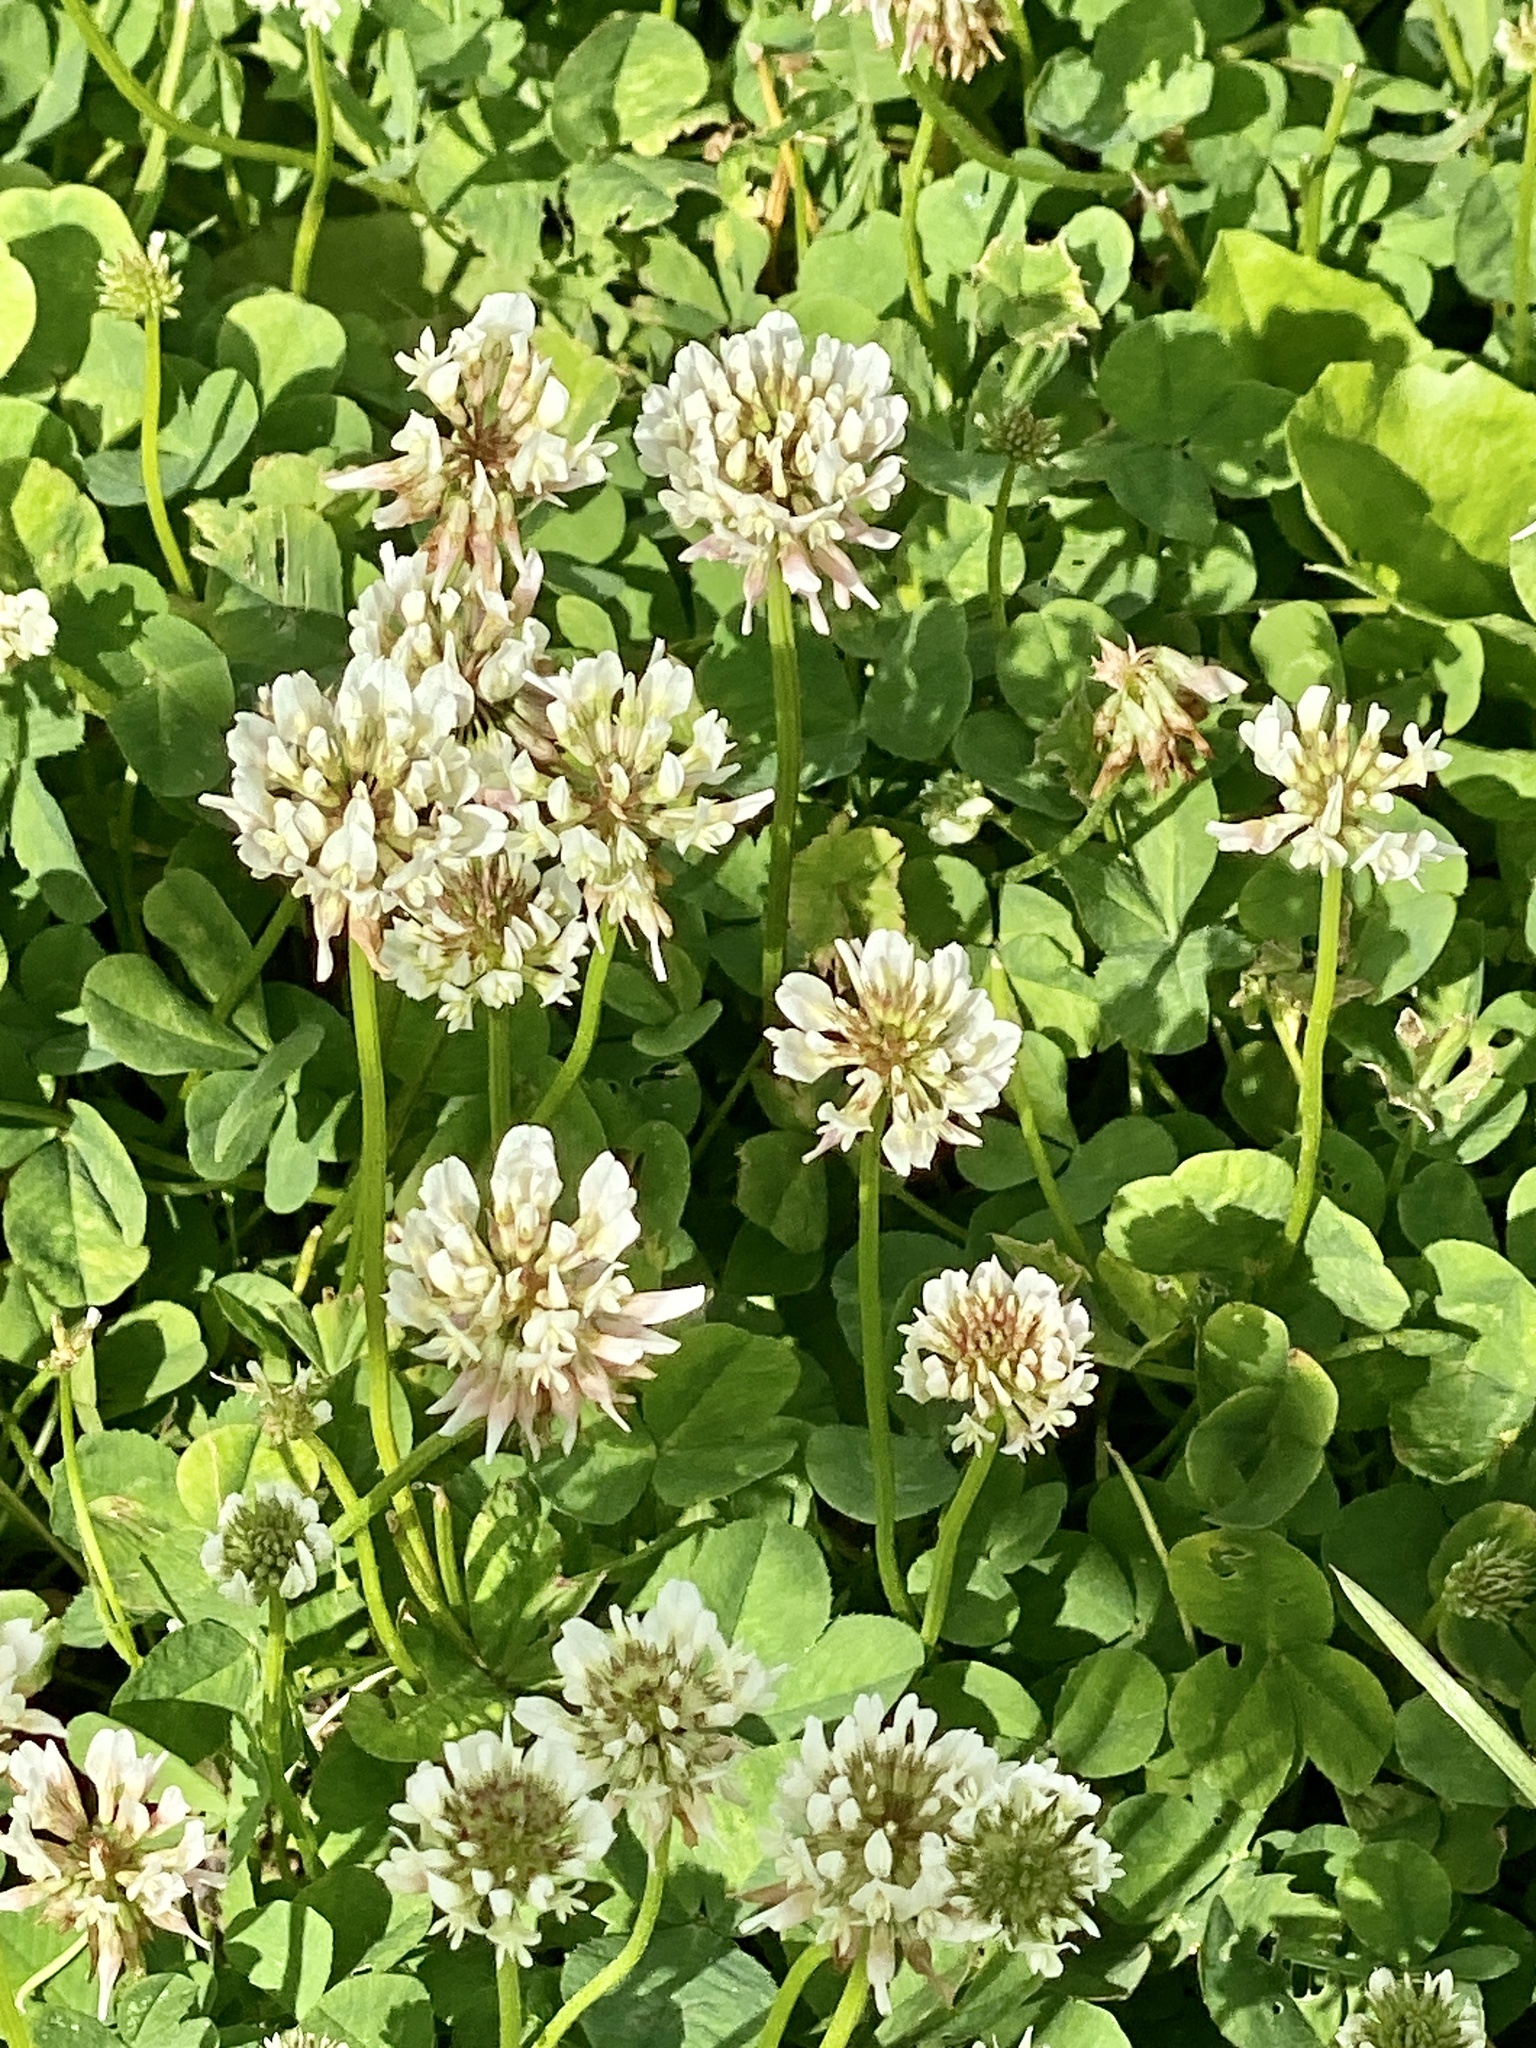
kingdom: Plantae
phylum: Tracheophyta
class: Magnoliopsida
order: Fabales
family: Fabaceae
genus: Trifolium
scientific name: Trifolium repens
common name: White clover
